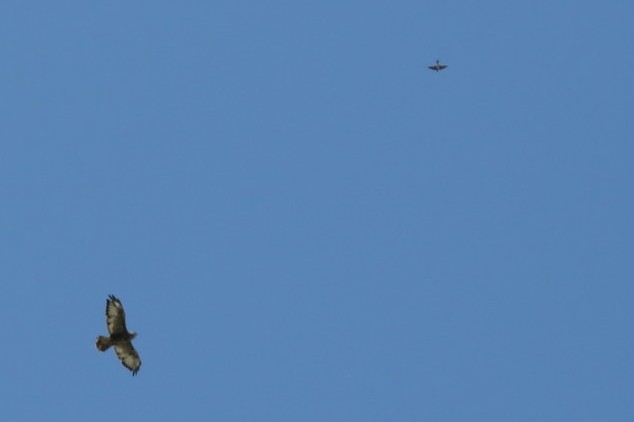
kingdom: Animalia
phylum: Chordata
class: Aves
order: Accipitriformes
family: Accipitridae
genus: Buteo
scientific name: Buteo buteo
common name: Common buzzard
